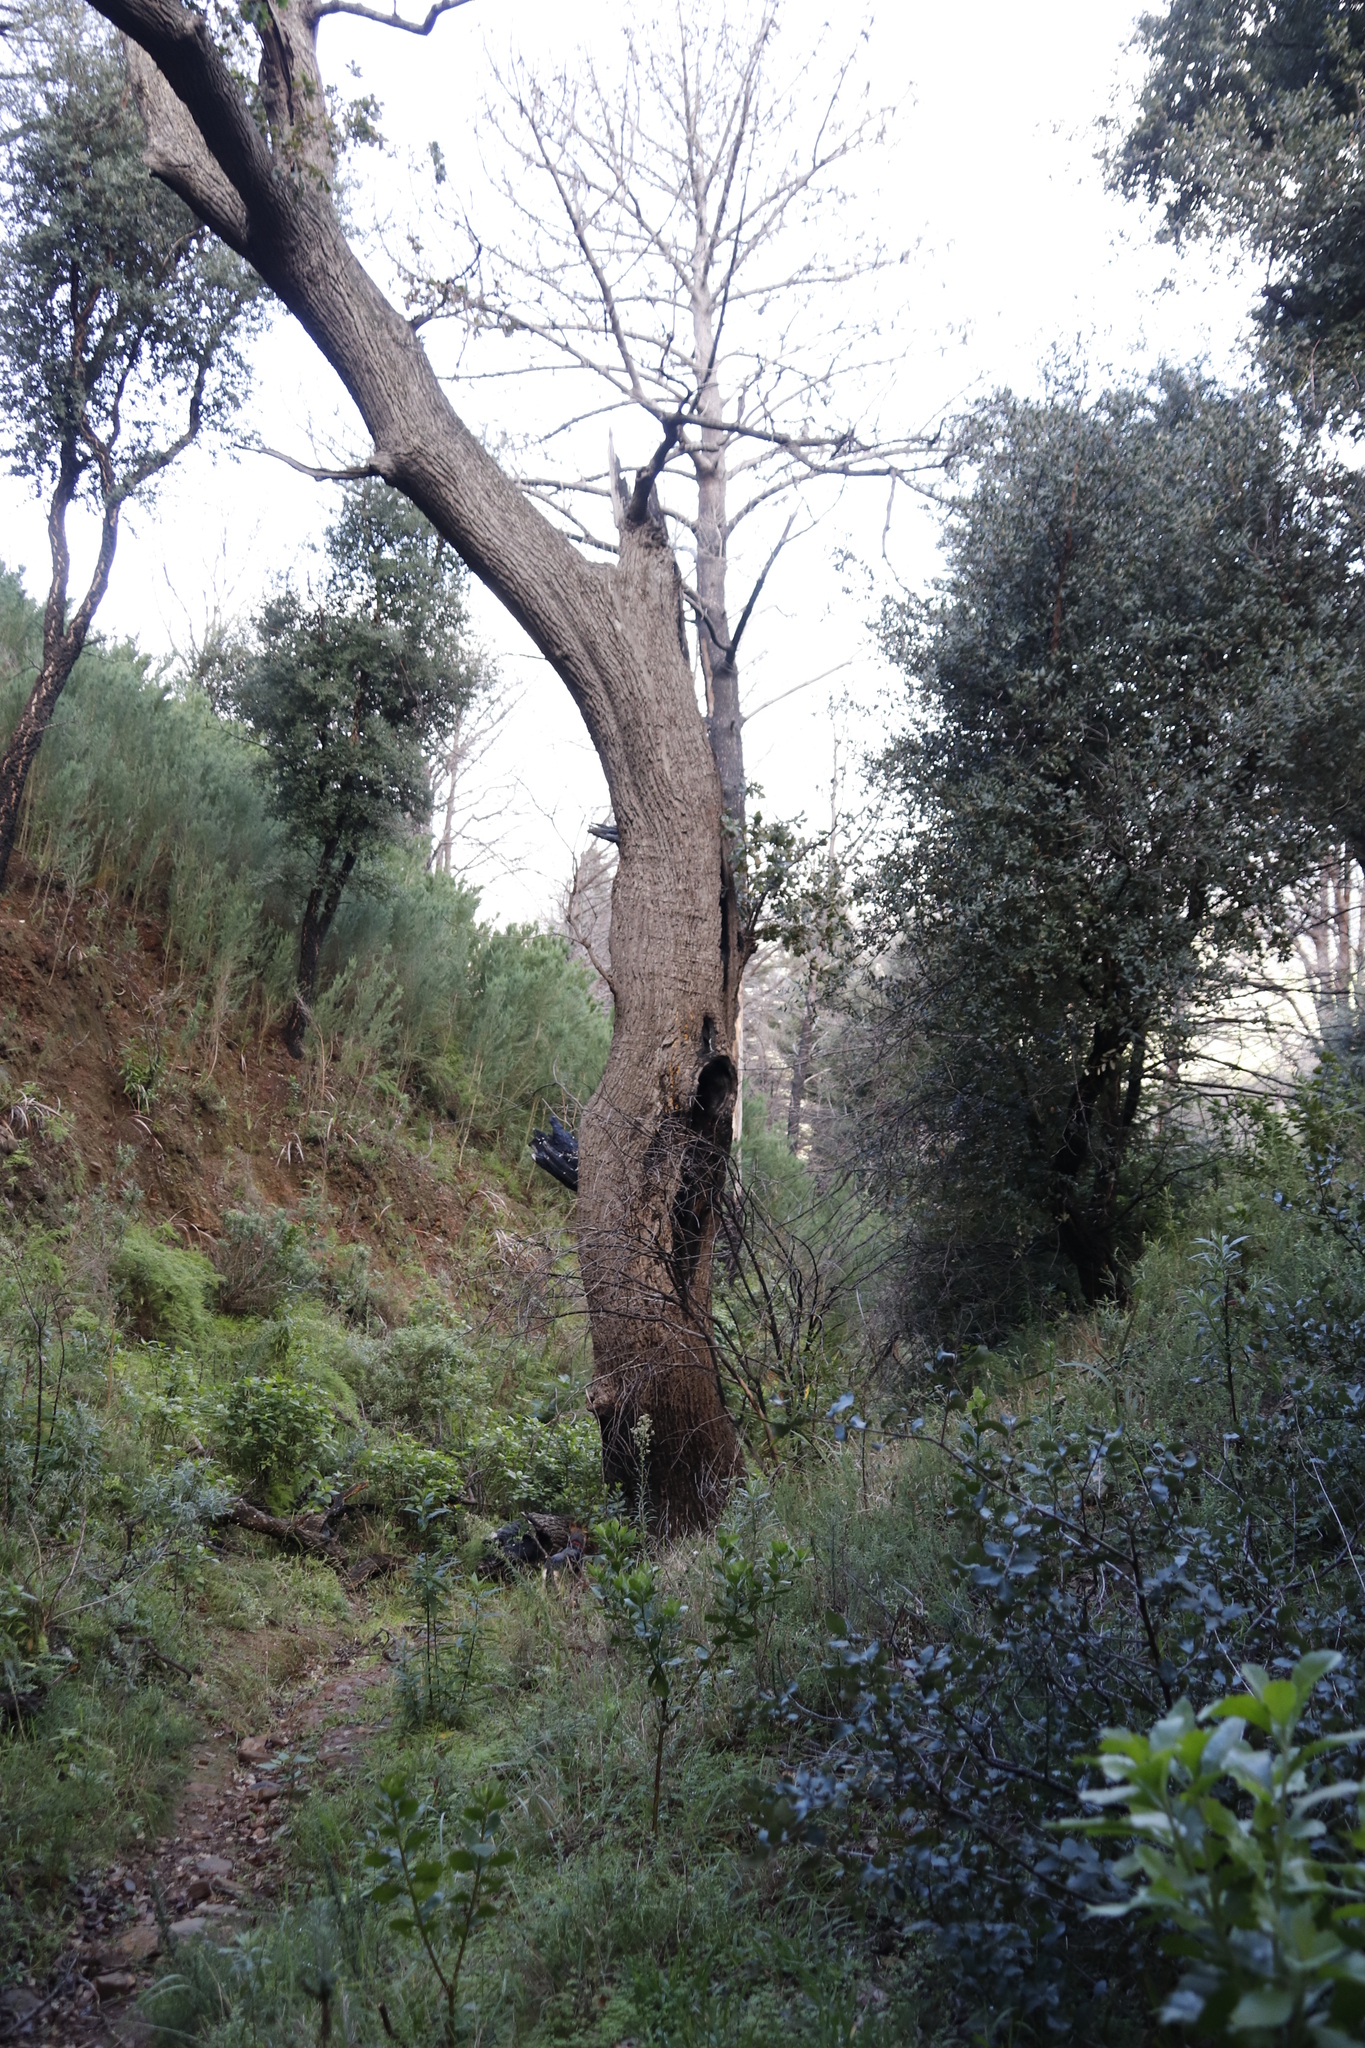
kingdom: Plantae
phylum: Tracheophyta
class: Magnoliopsida
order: Fagales
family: Fagaceae
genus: Quercus
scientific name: Quercus robur
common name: Pedunculate oak
